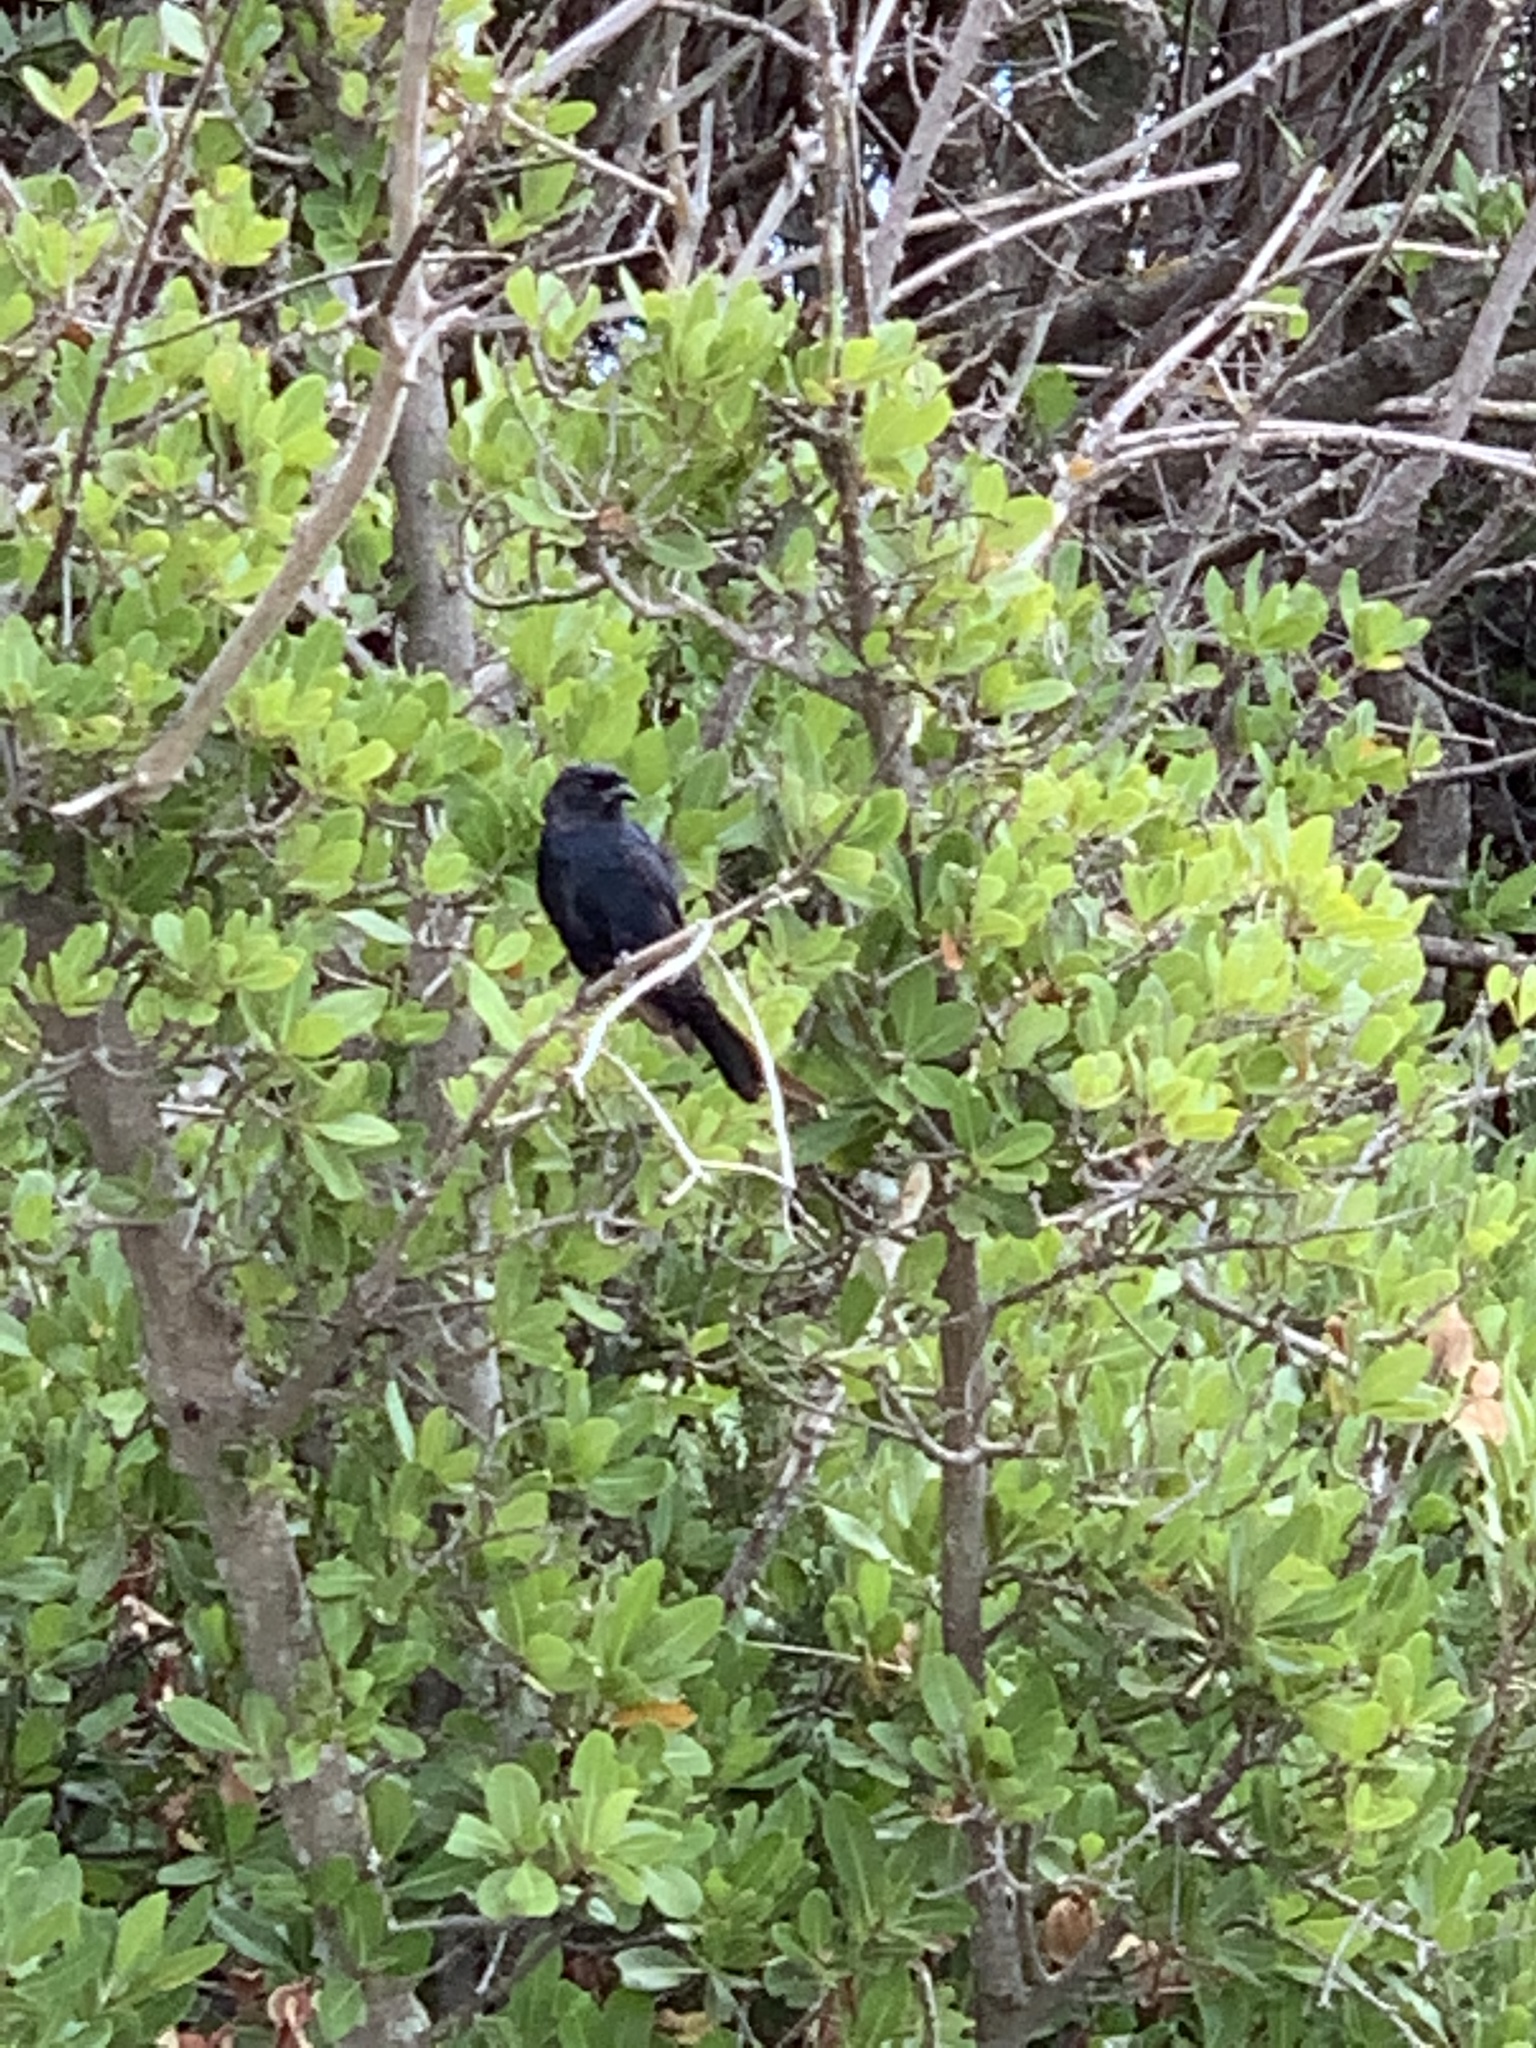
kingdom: Animalia
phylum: Chordata
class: Aves
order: Passeriformes
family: Dicruridae
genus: Dicrurus
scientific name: Dicrurus adsimilis
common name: Fork-tailed drongo
